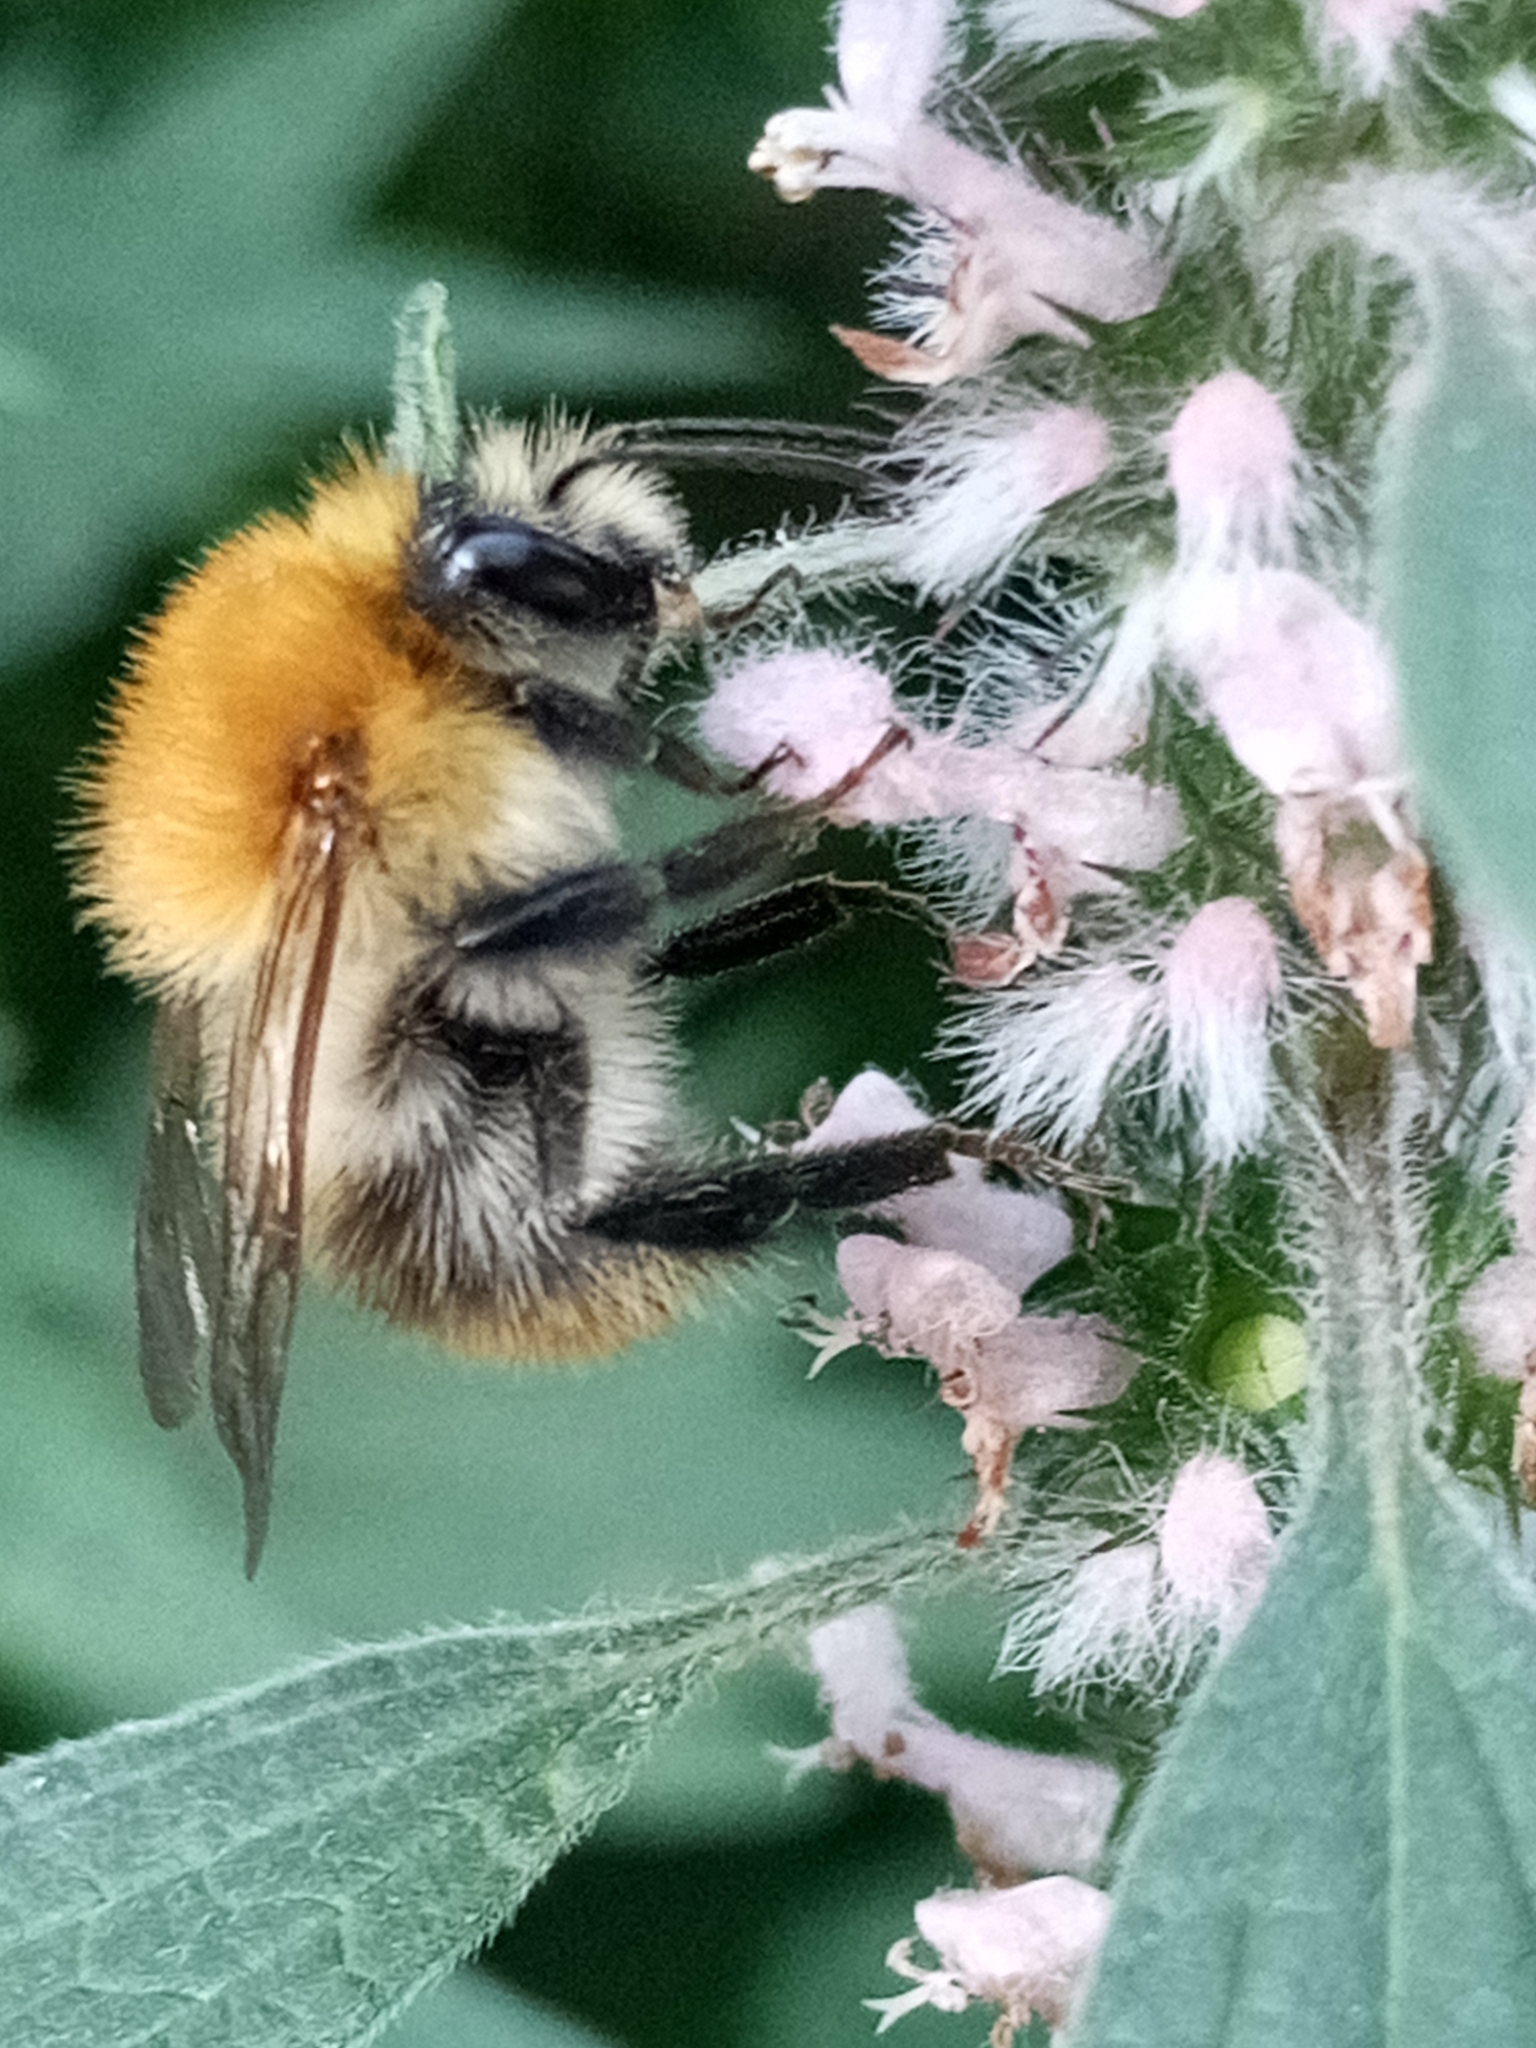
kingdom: Animalia
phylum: Arthropoda
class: Insecta
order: Hymenoptera
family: Apidae
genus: Bombus
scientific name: Bombus pascuorum
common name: Common carder bee
